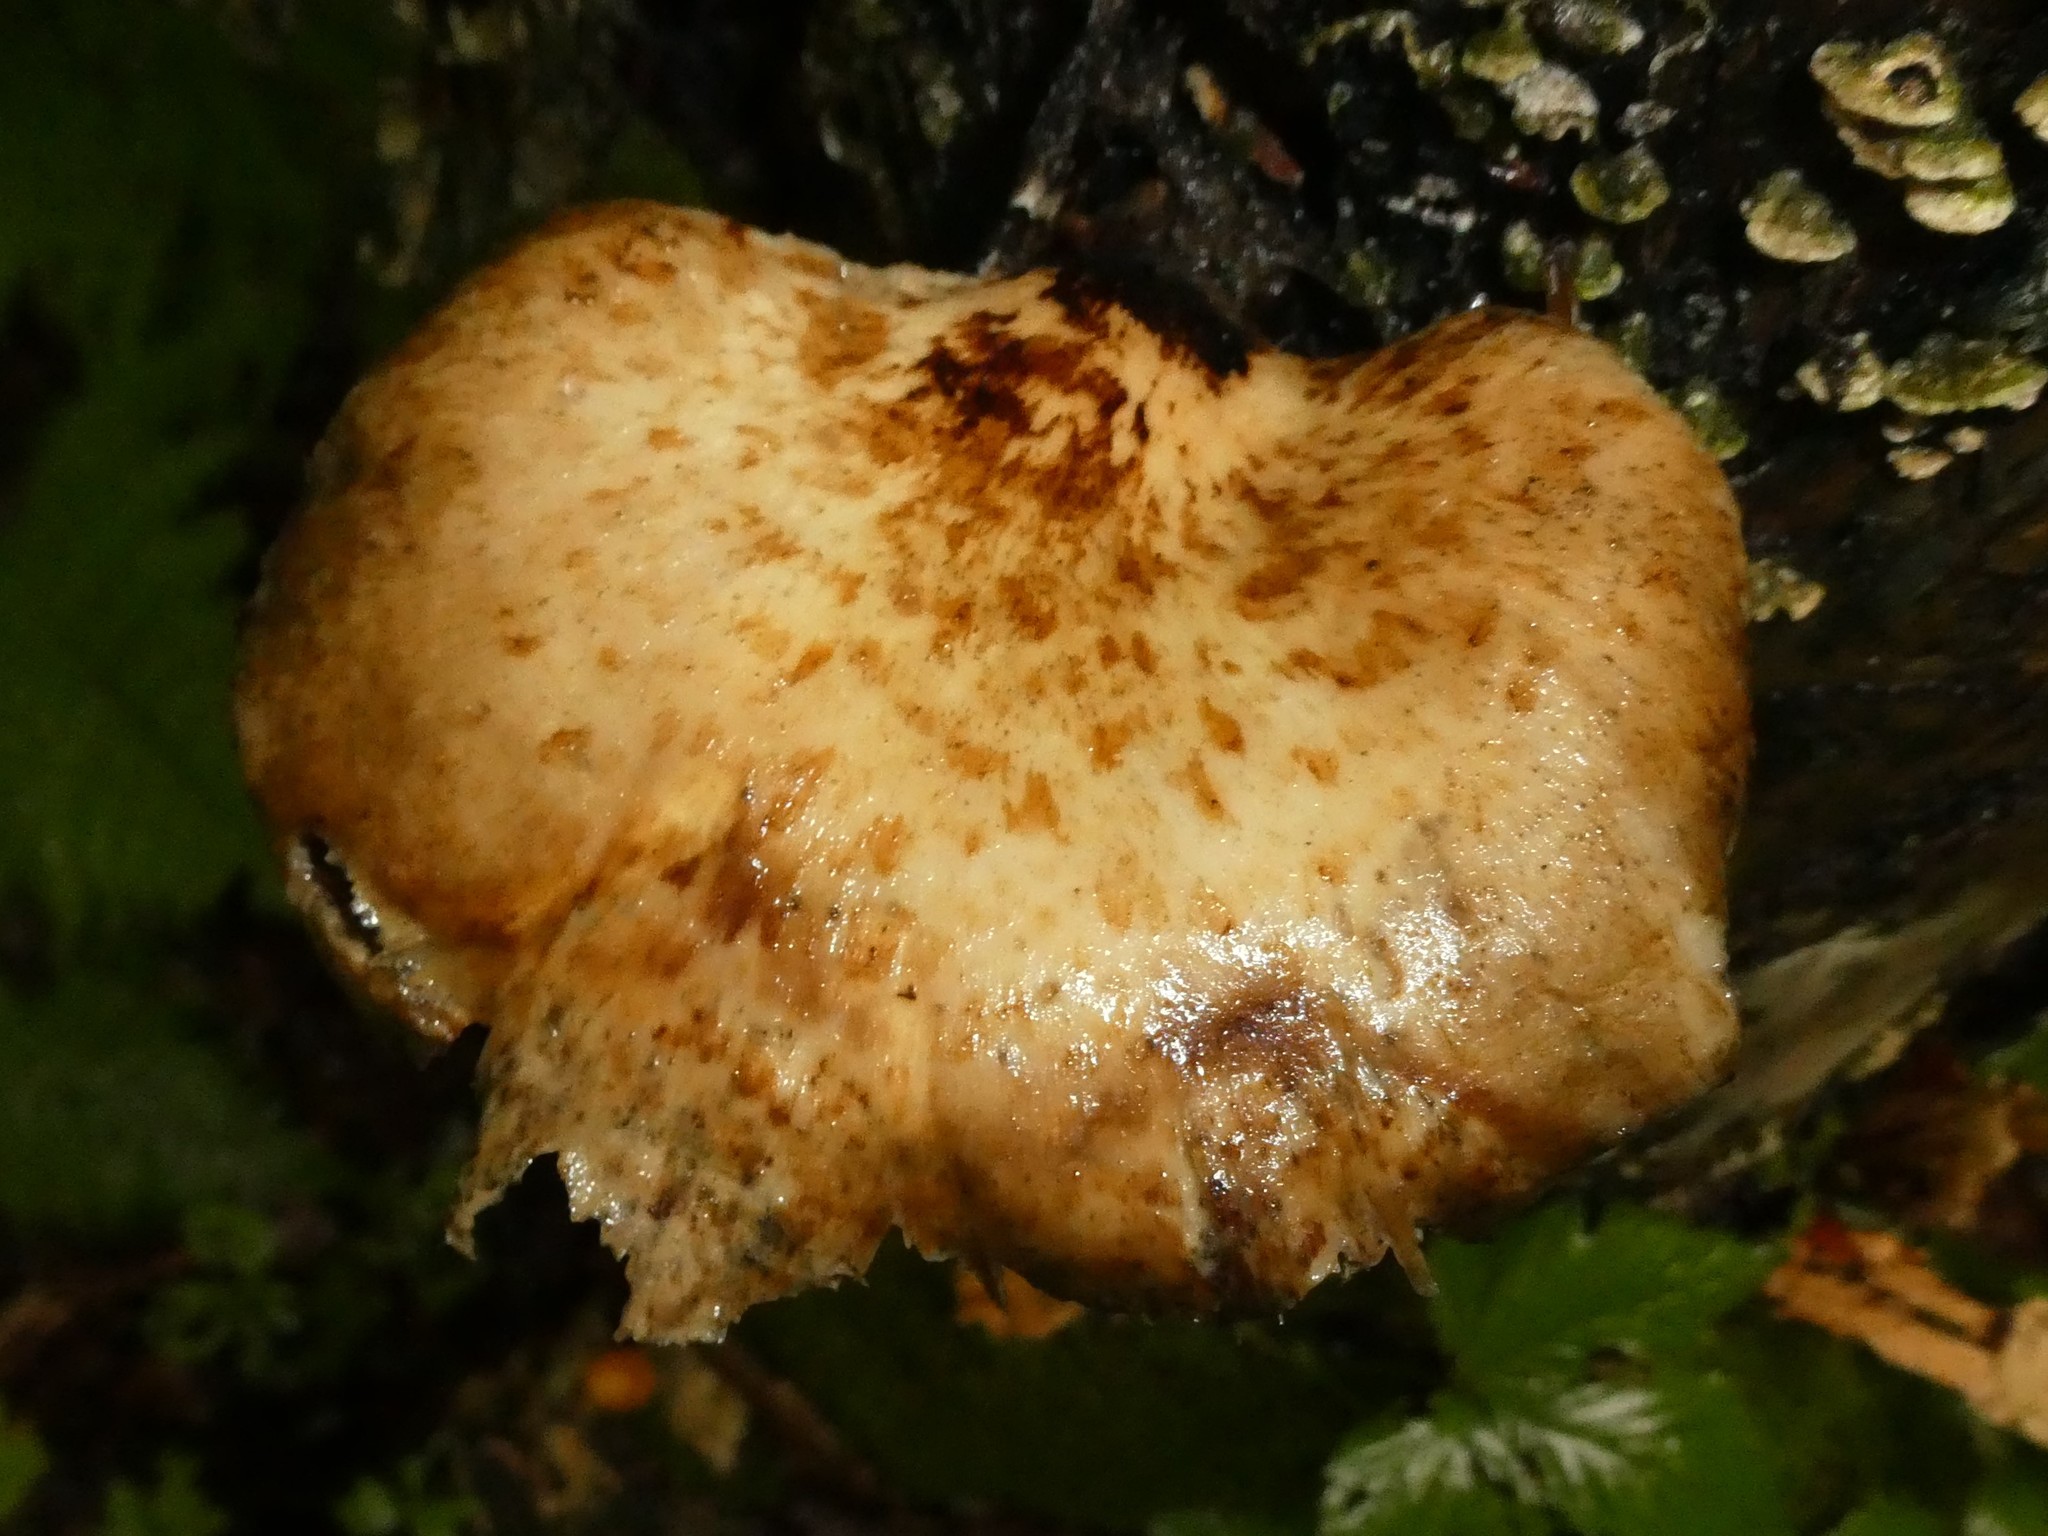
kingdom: Fungi
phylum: Basidiomycota
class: Agaricomycetes
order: Polyporales
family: Polyporaceae
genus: Cerioporus
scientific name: Cerioporus squamosus
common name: Dryad's saddle
